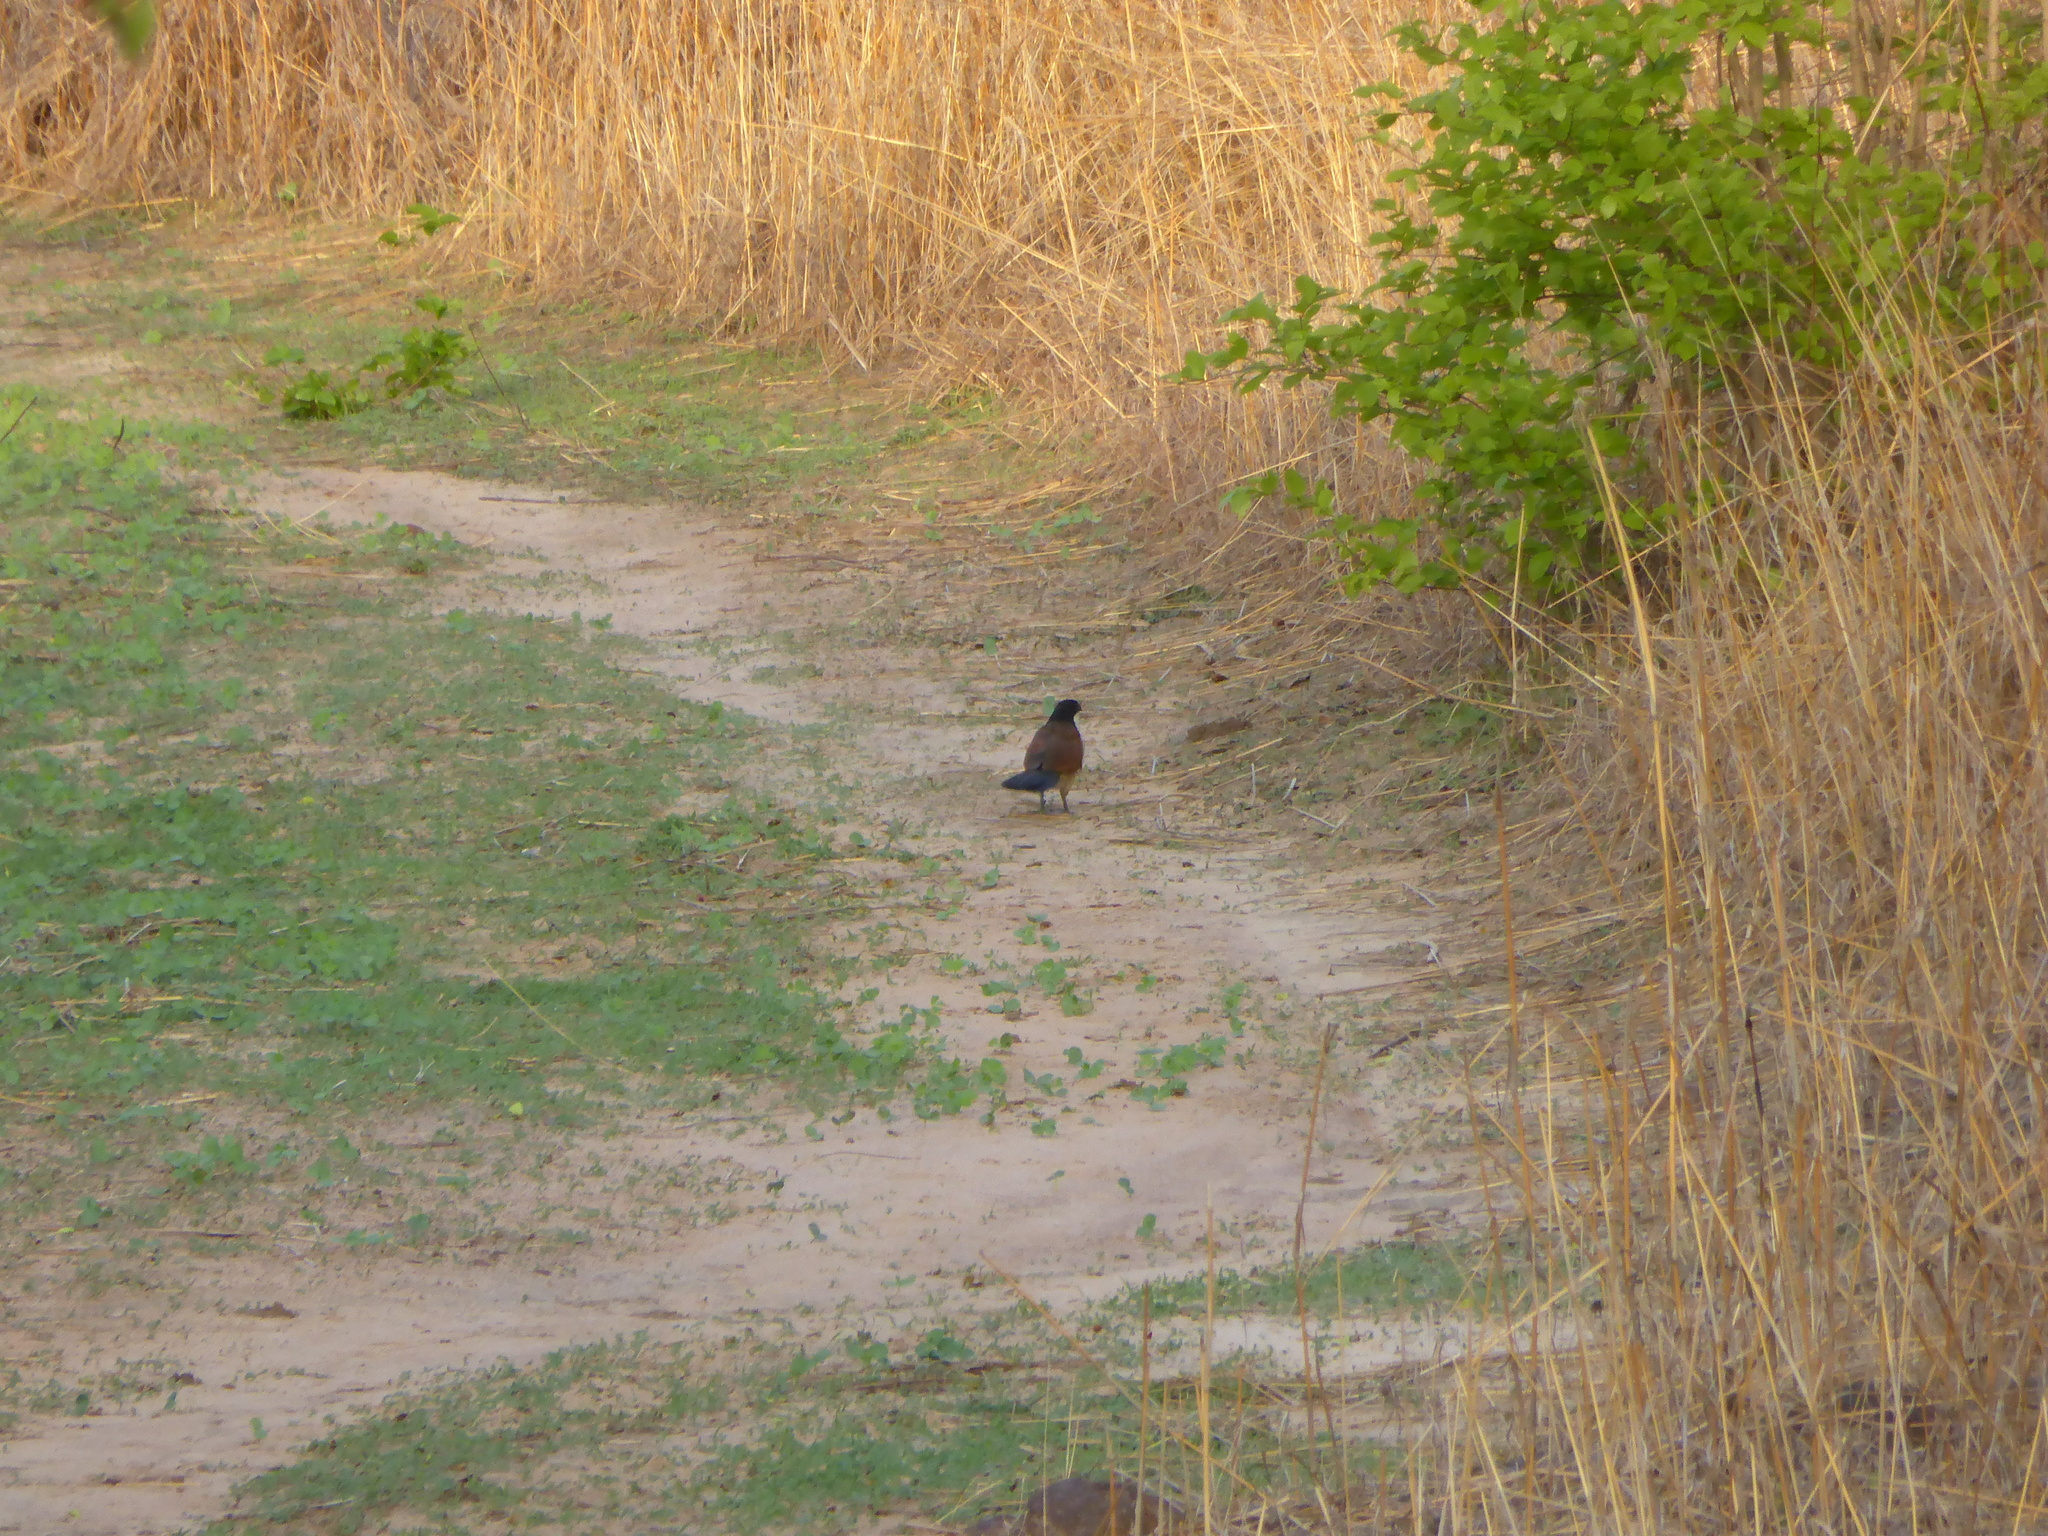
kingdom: Animalia
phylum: Chordata
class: Aves
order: Cuculiformes
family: Cuculidae
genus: Centropus
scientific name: Centropus senegalensis
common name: Senegal coucal
